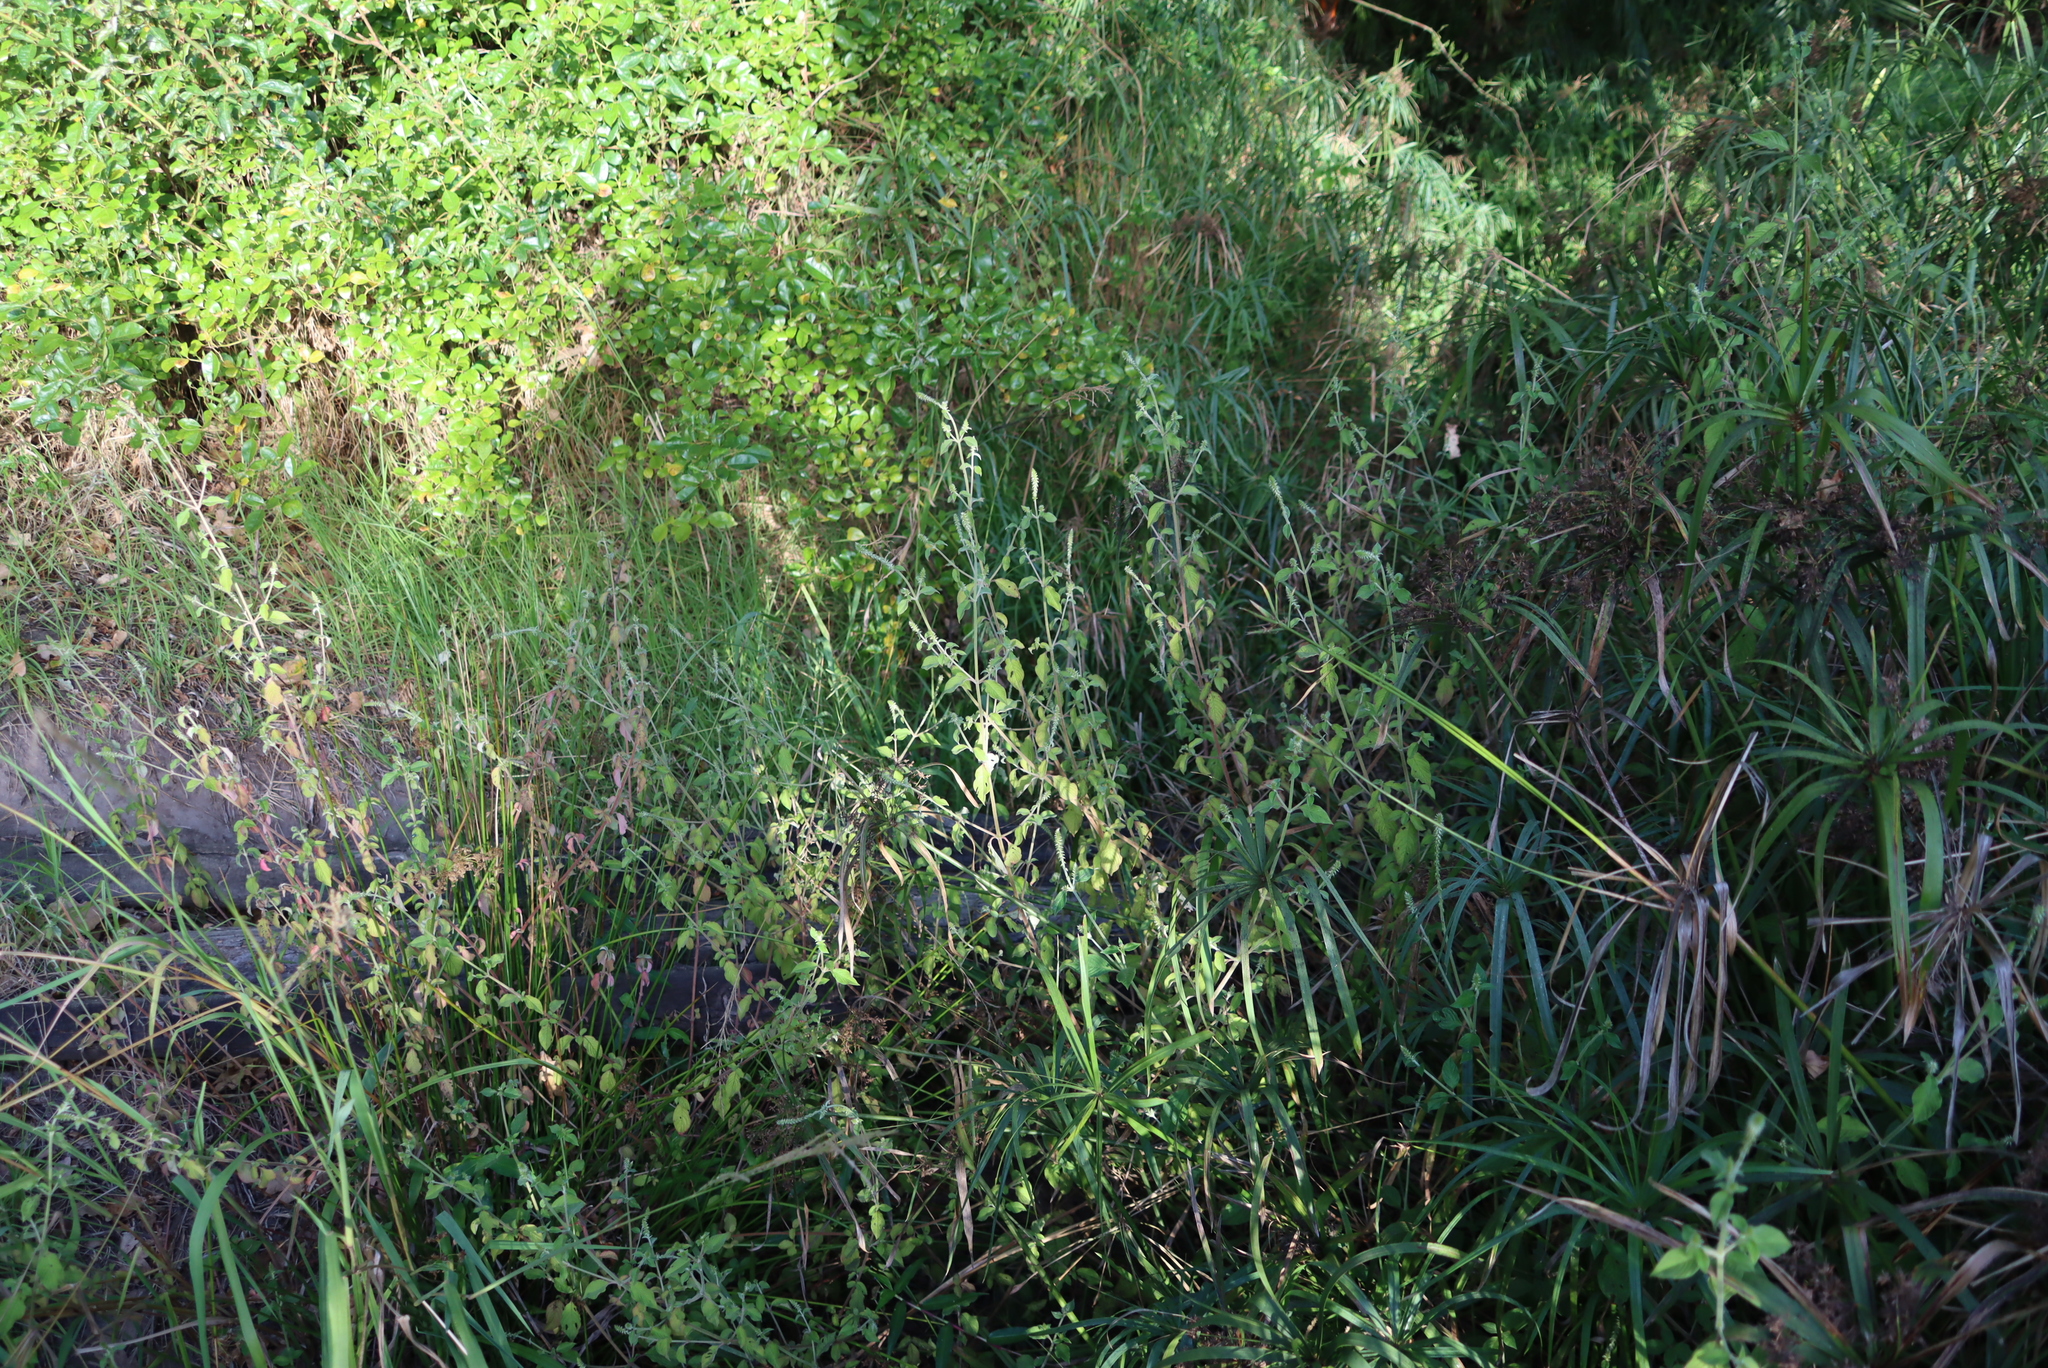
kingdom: Plantae
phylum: Tracheophyta
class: Magnoliopsida
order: Caryophyllales
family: Amaranthaceae
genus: Achyranthes
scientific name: Achyranthes aspera
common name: Devil's horsewhip
